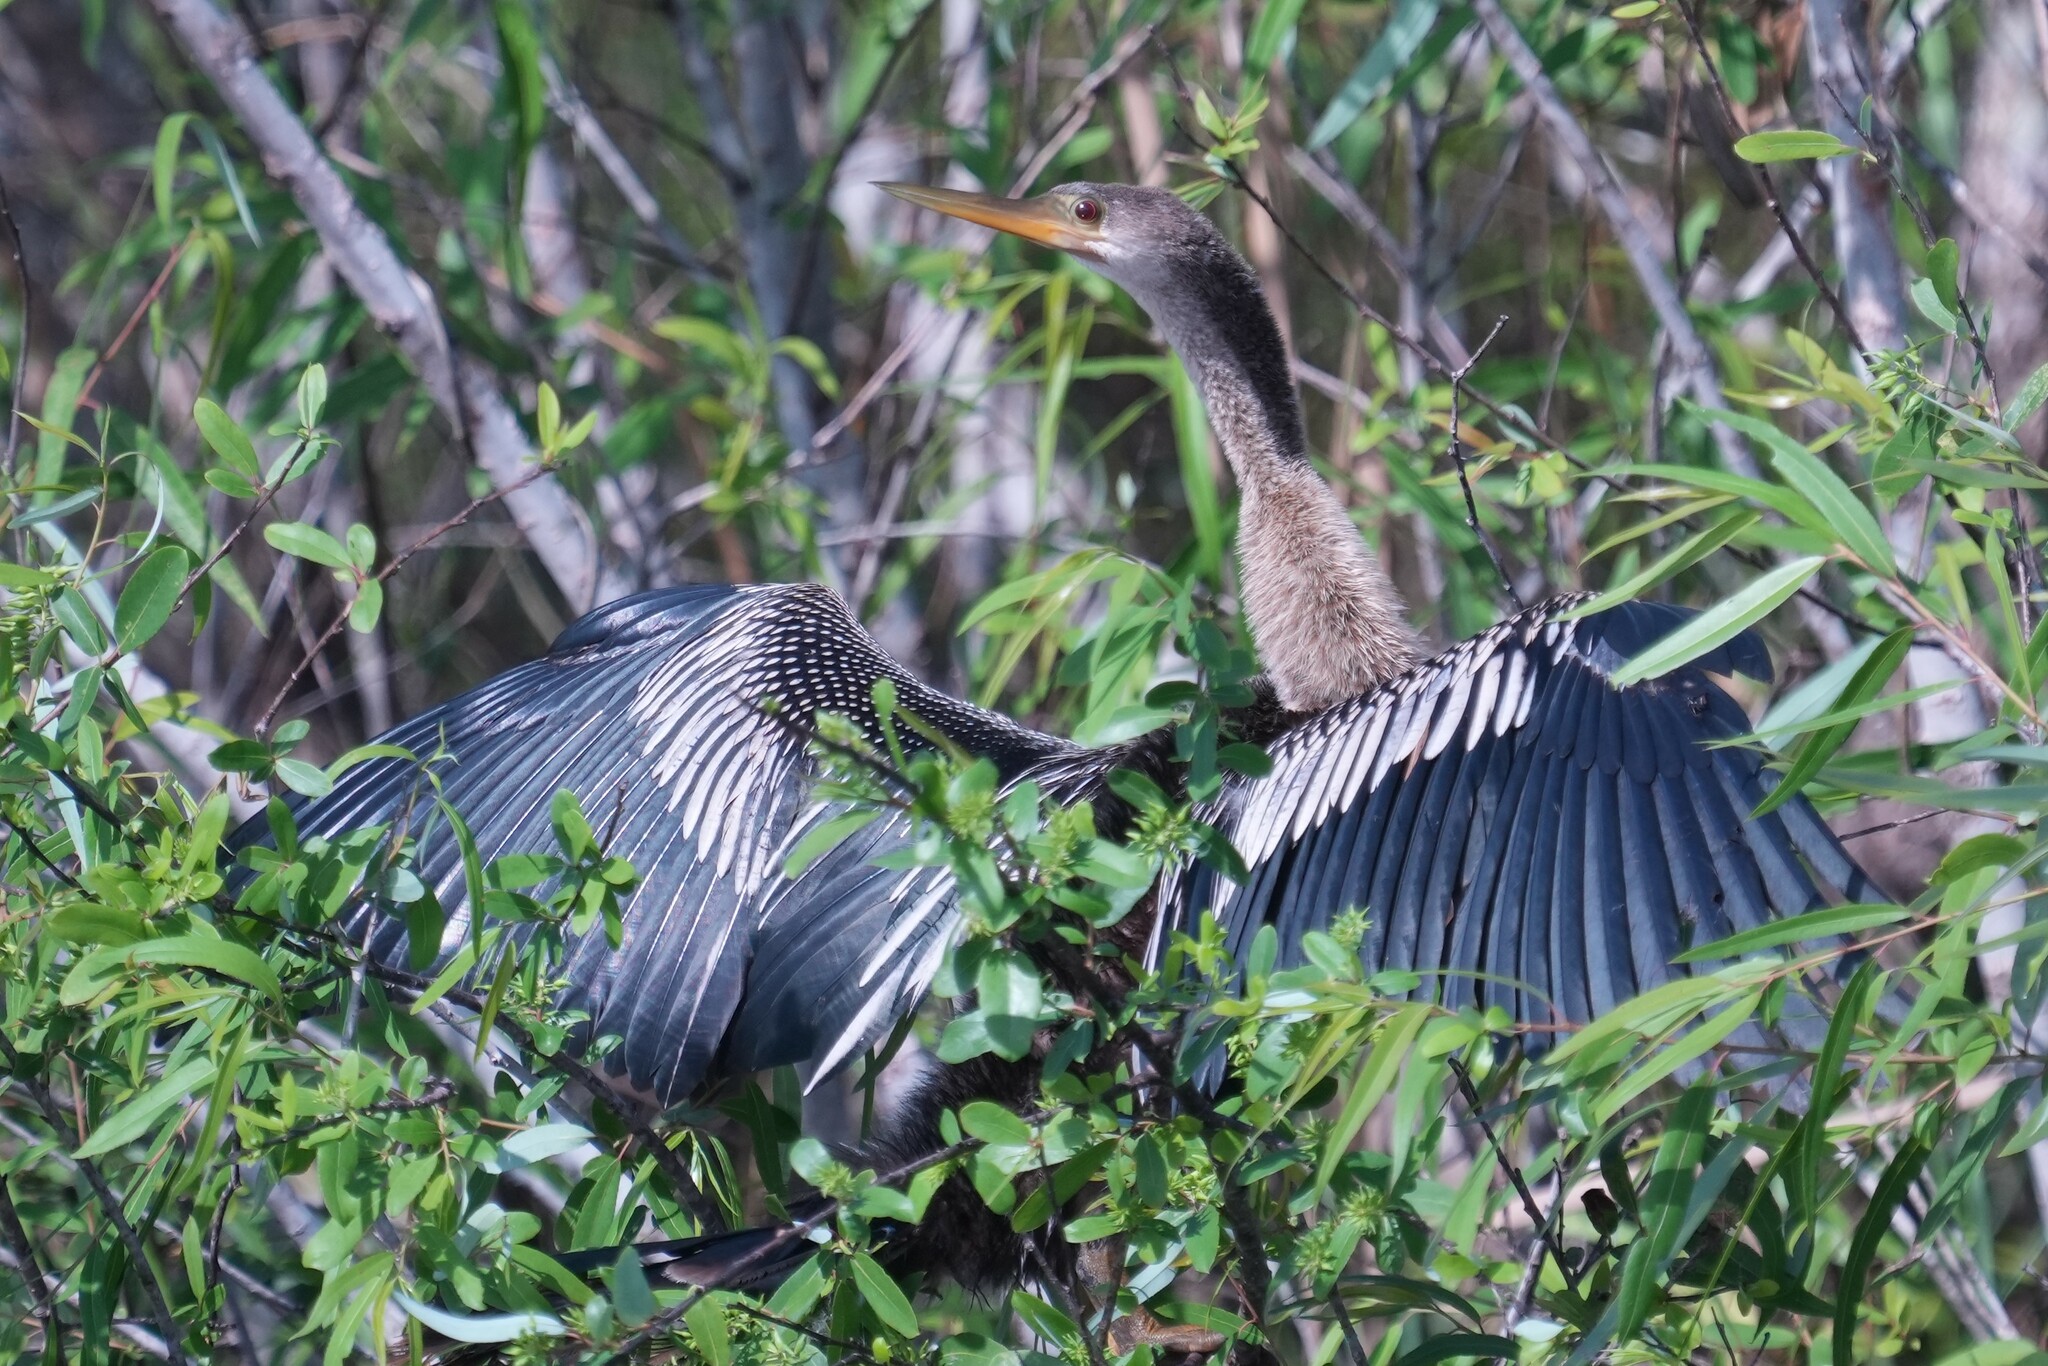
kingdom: Animalia
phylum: Chordata
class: Aves
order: Suliformes
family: Anhingidae
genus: Anhinga
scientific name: Anhinga anhinga
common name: Anhinga
